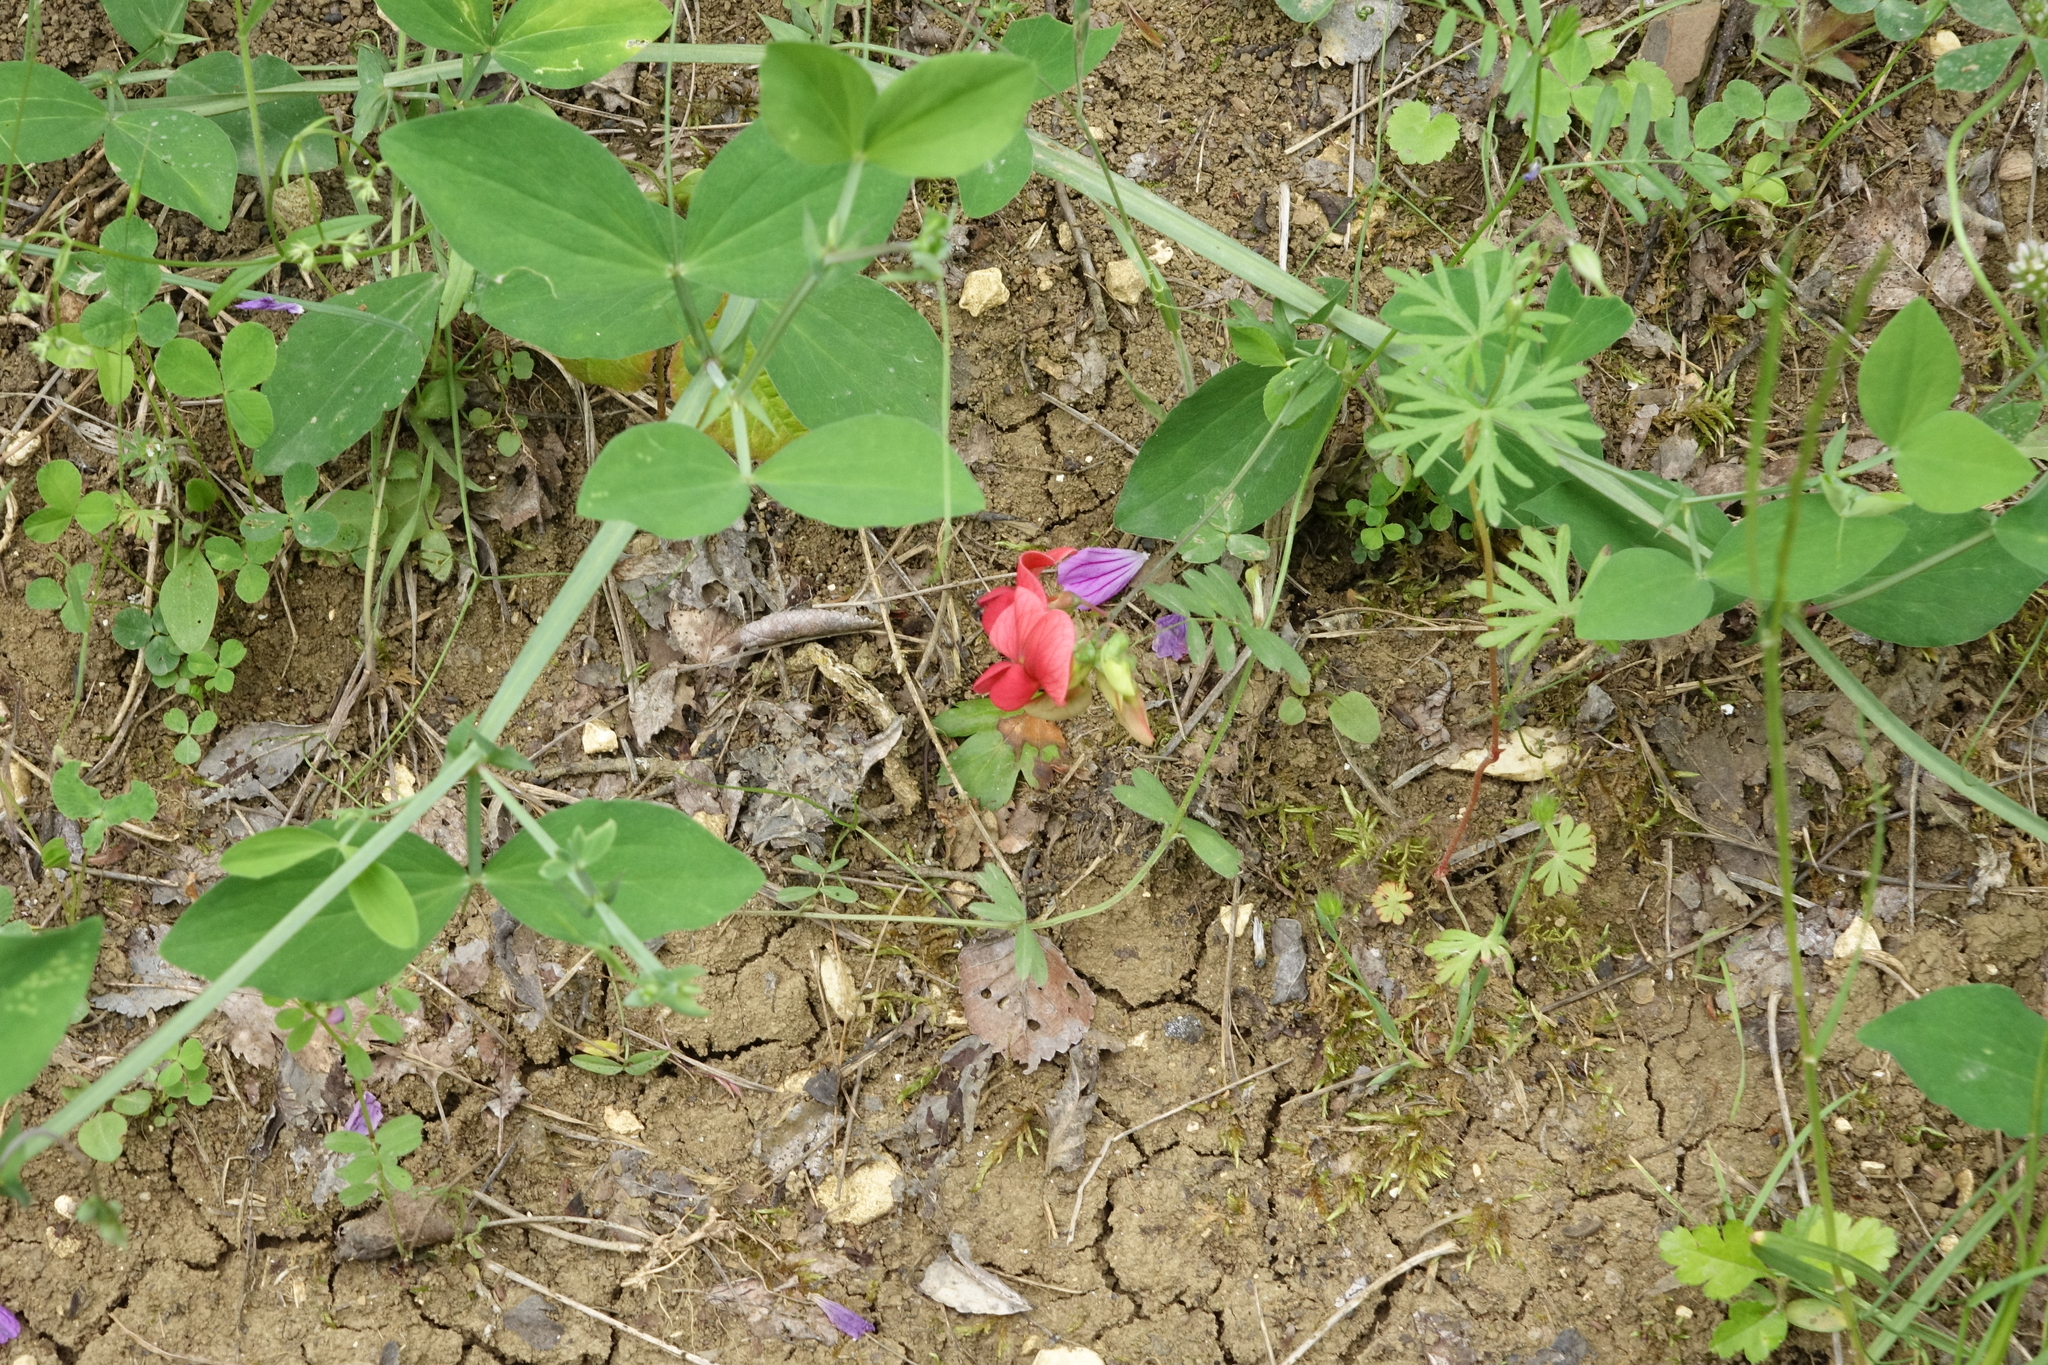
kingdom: Plantae
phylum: Tracheophyta
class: Magnoliopsida
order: Fabales
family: Fabaceae
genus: Lathyrus
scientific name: Lathyrus miniatus
